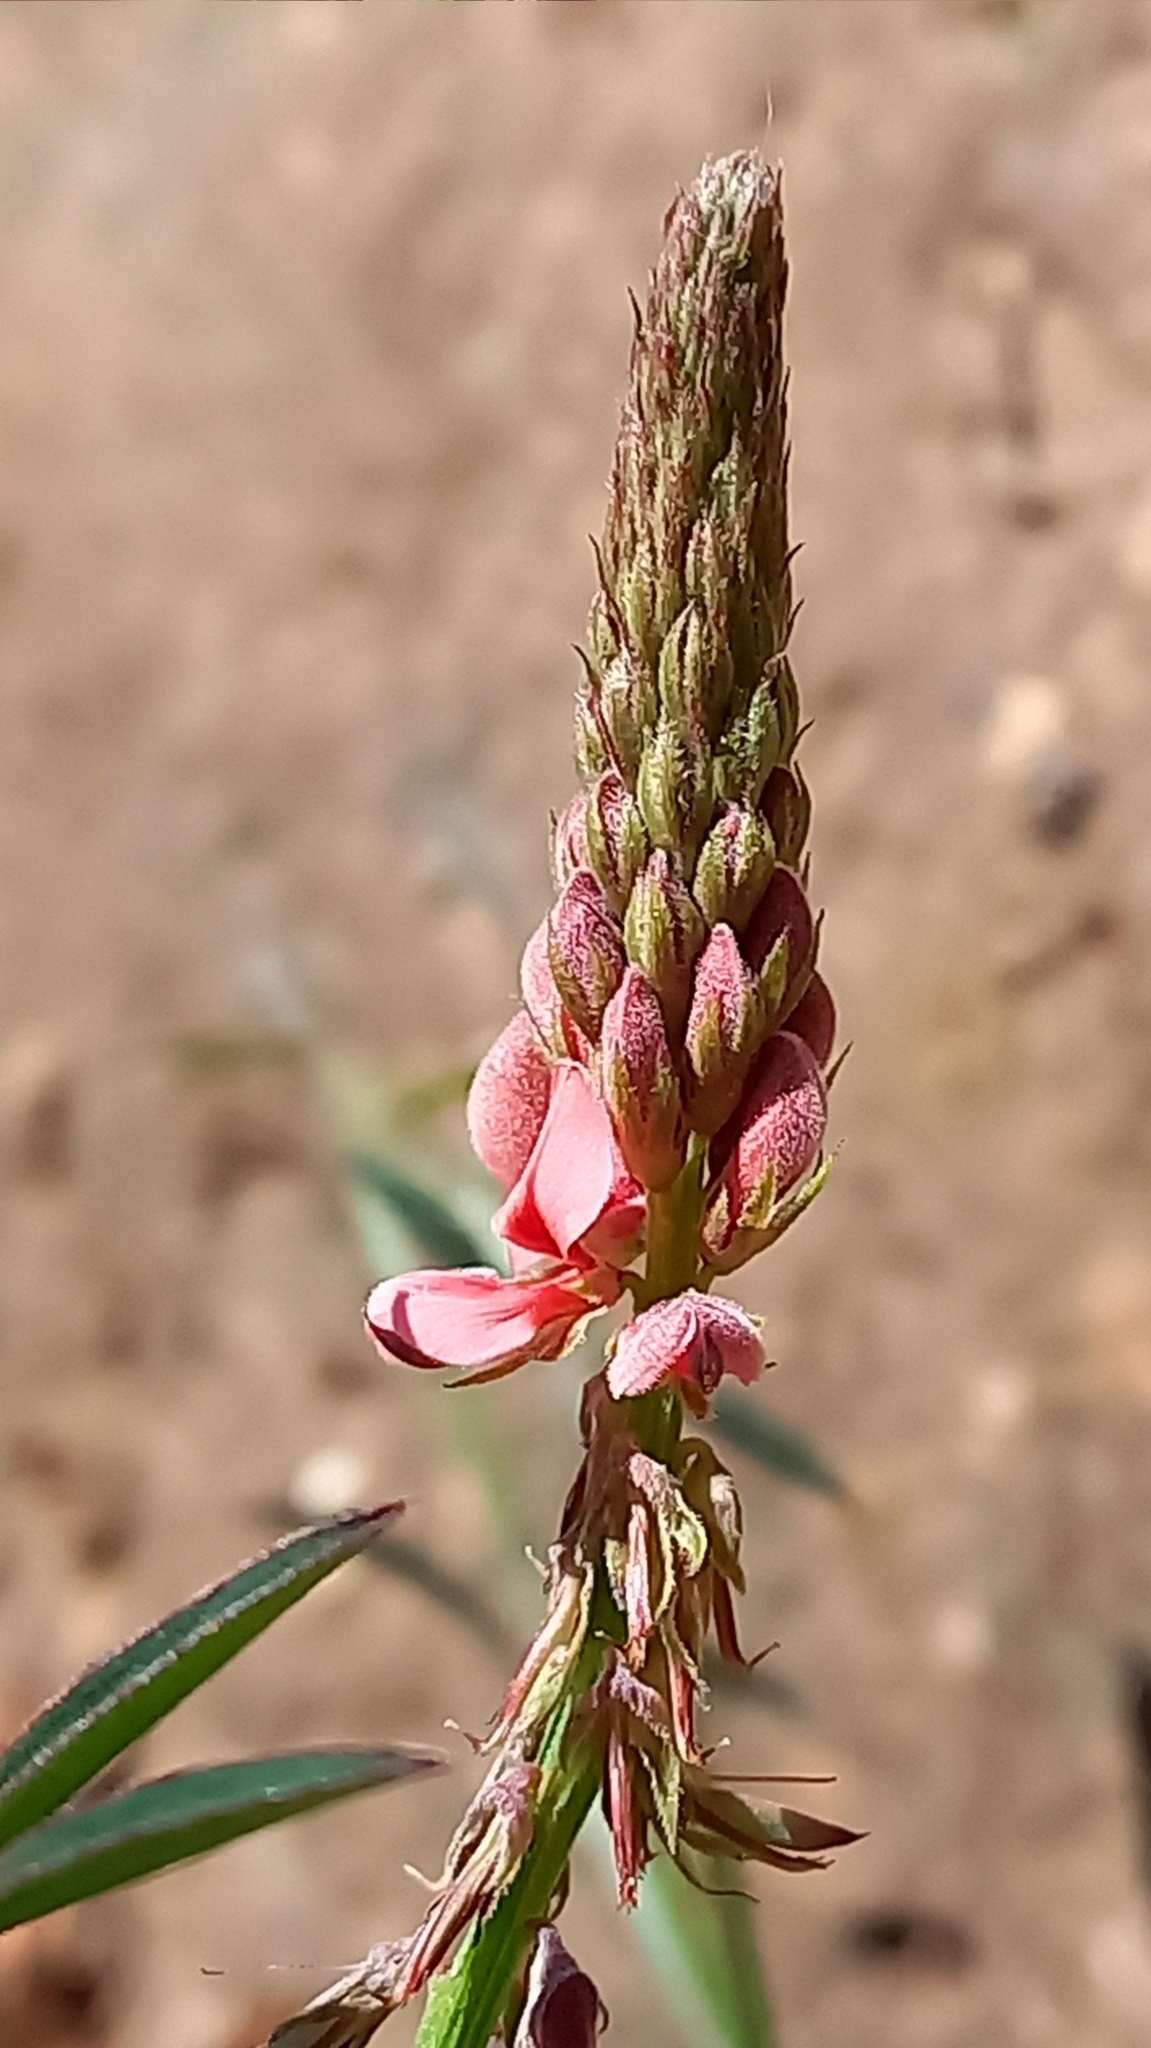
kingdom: Plantae
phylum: Tracheophyta
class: Magnoliopsida
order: Fabales
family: Fabaceae
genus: Indigofera
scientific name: Indigofera triquetra
